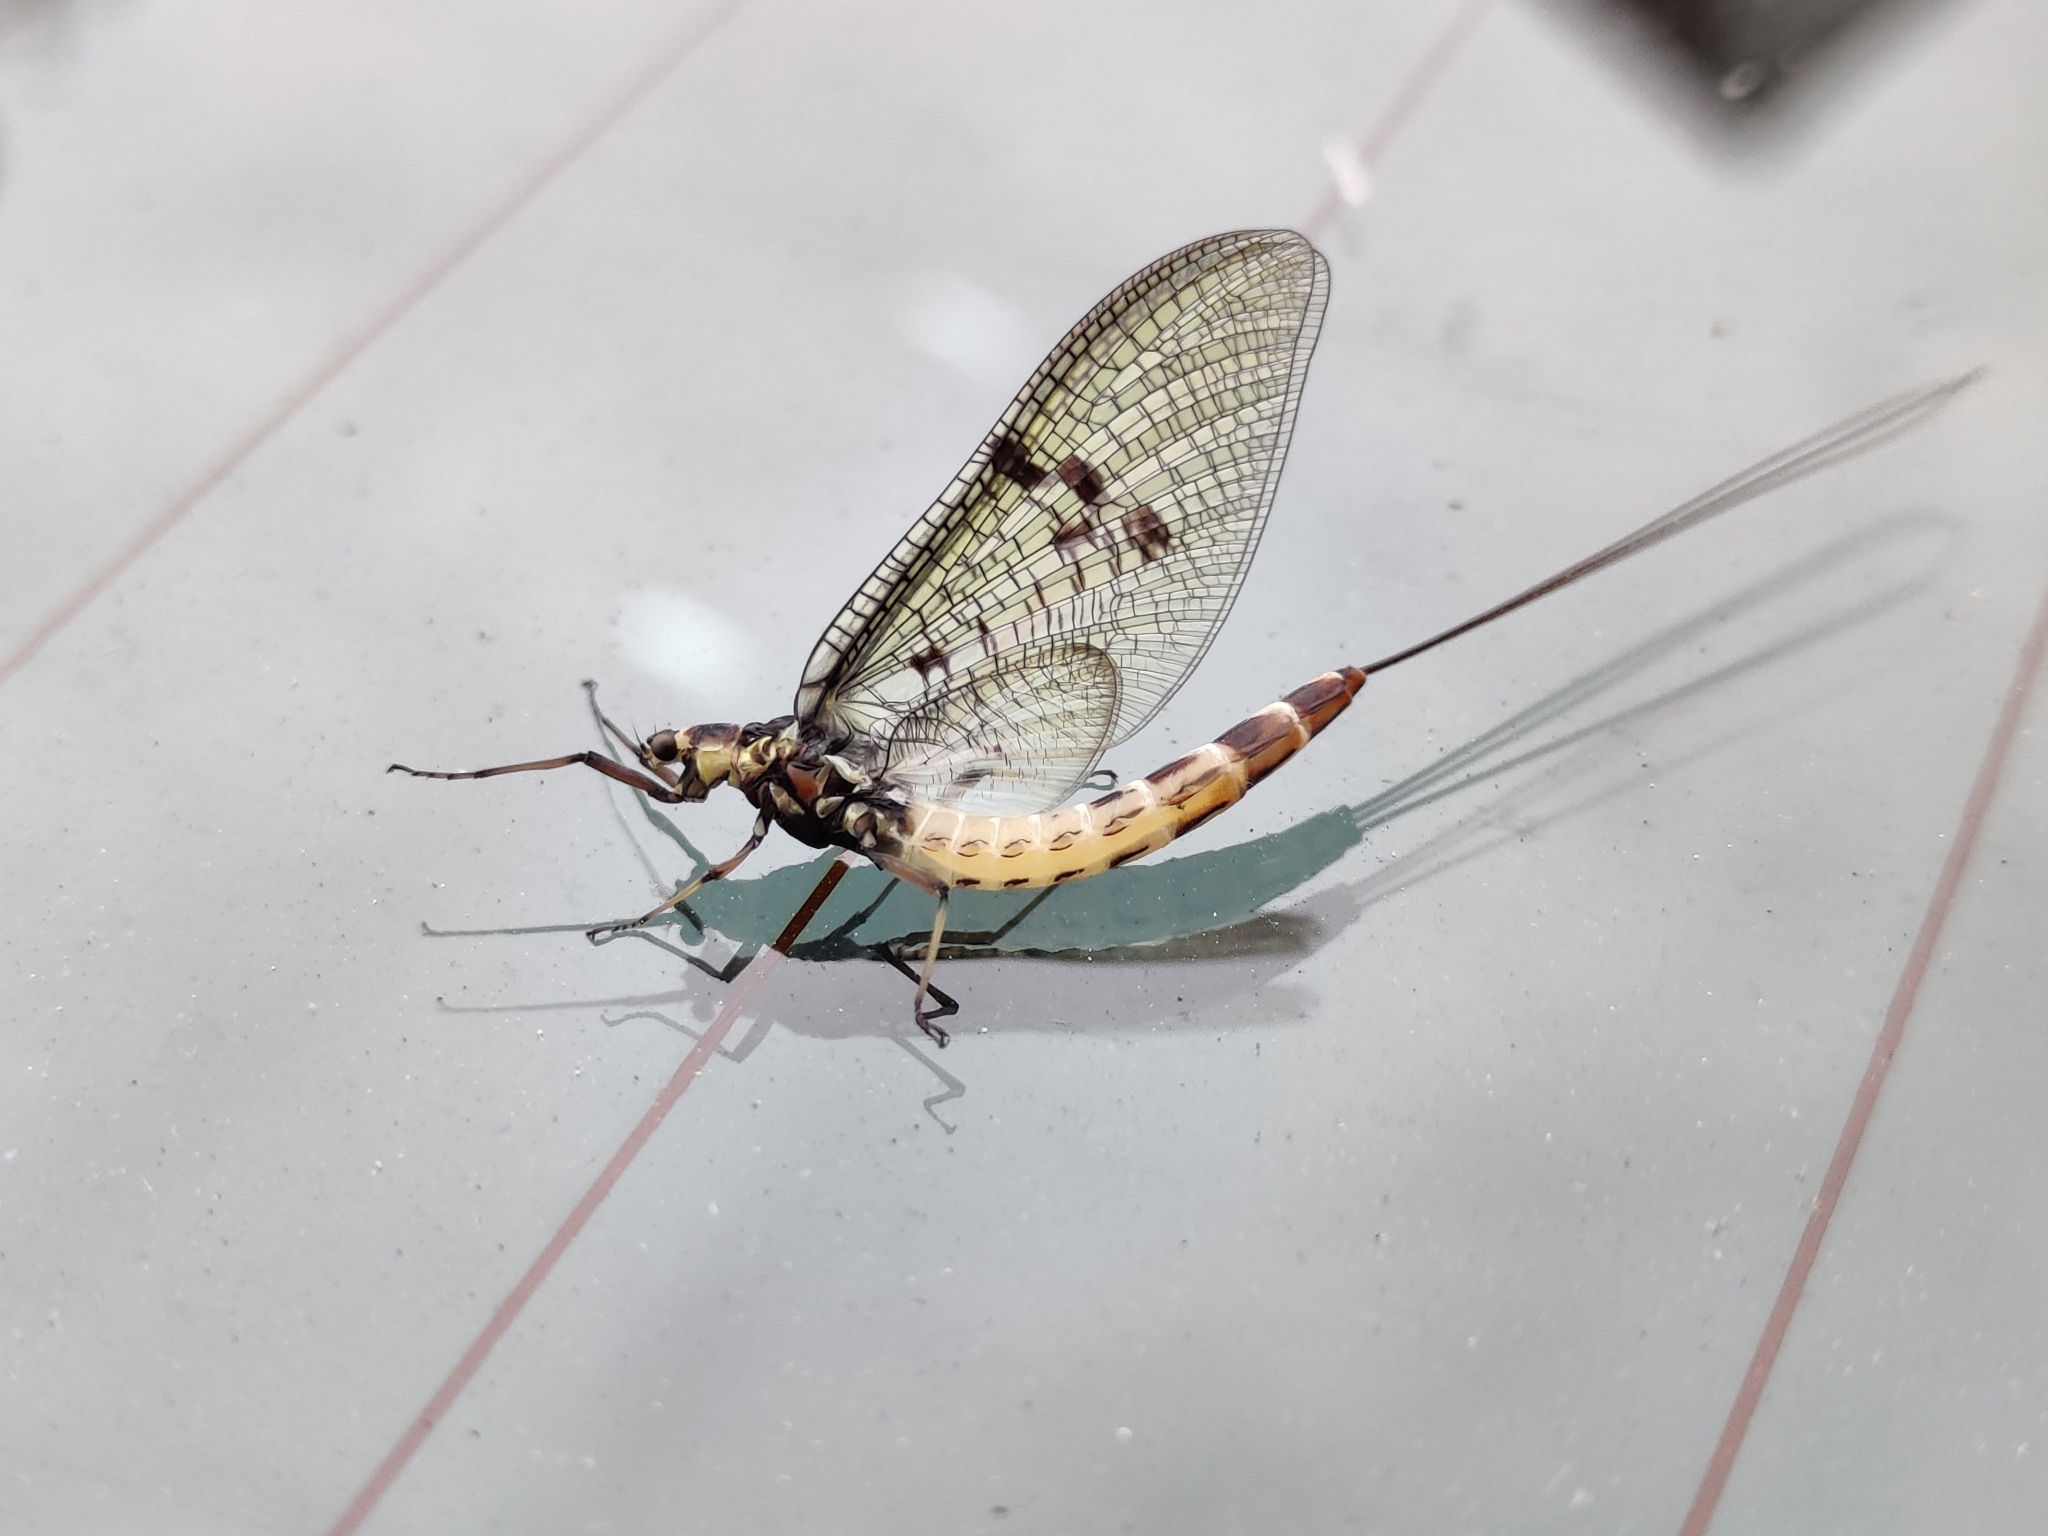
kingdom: Animalia
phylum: Arthropoda
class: Insecta
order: Ephemeroptera
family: Ephemeridae
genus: Ephemera
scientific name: Ephemera danica
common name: Green dun
